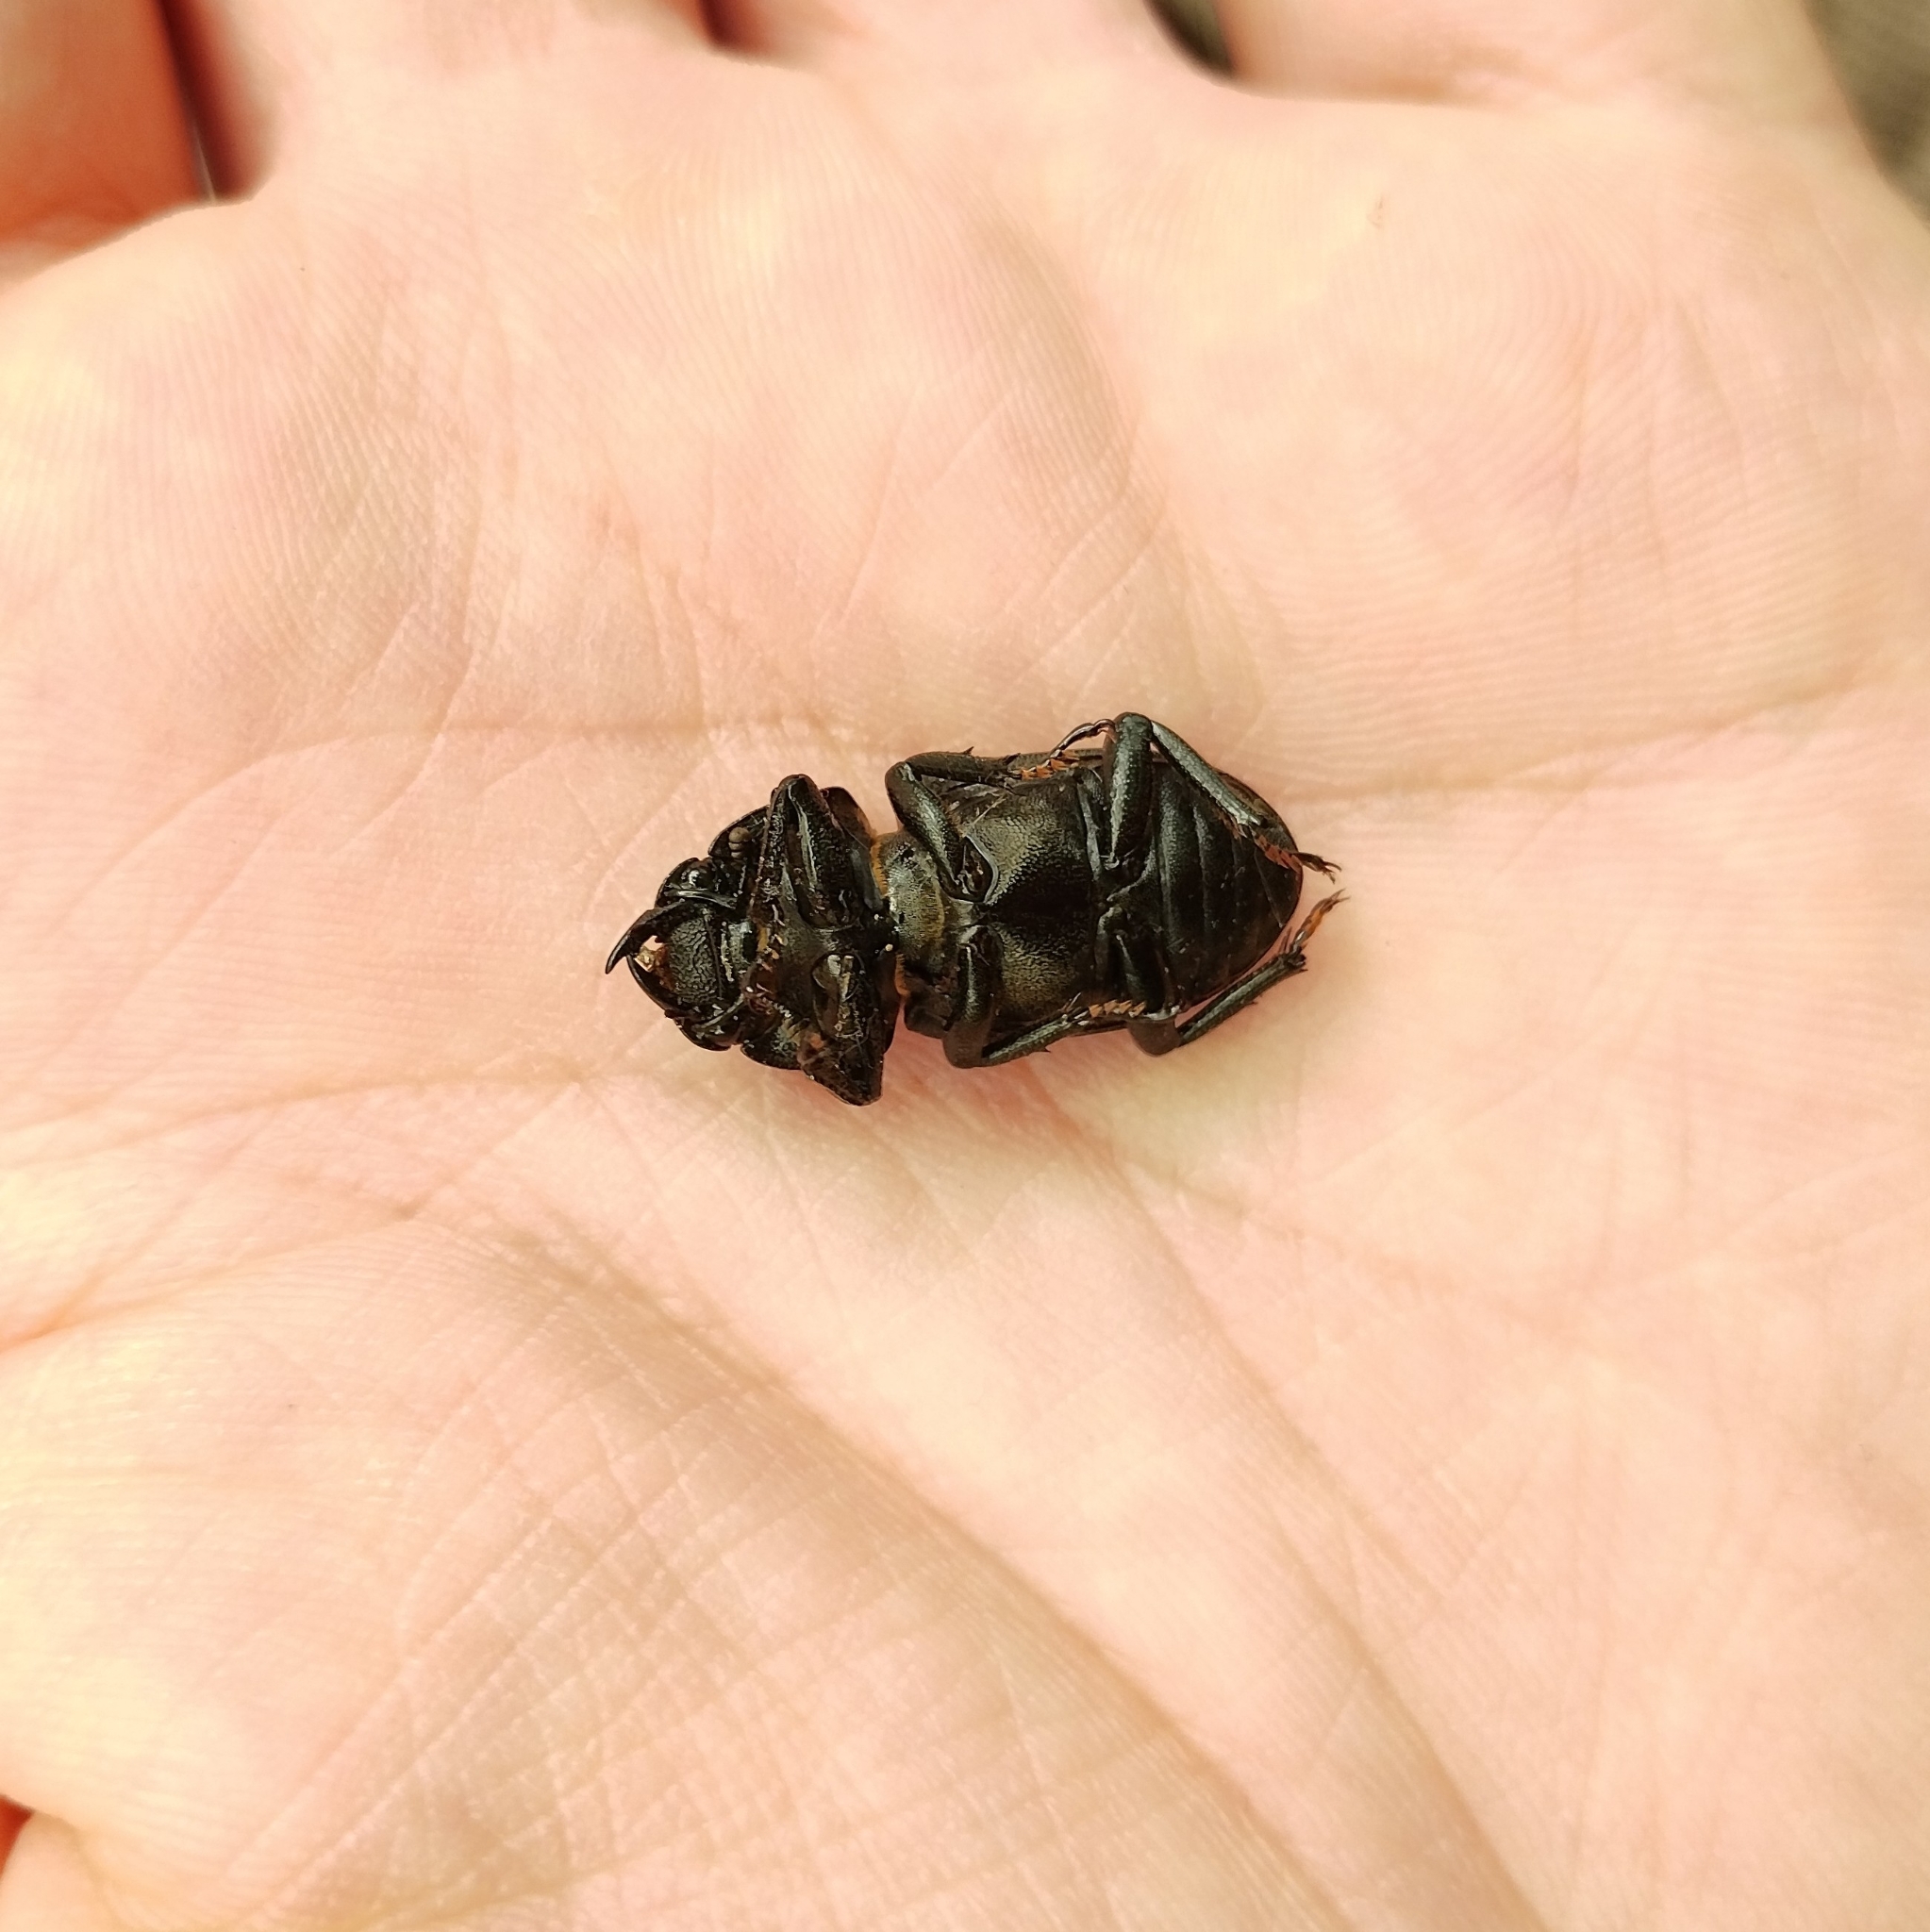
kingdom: Animalia
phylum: Arthropoda
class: Insecta
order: Coleoptera
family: Lucanidae
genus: Dorcus
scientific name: Dorcus parallelipipedus
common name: Lesser stag beetle
